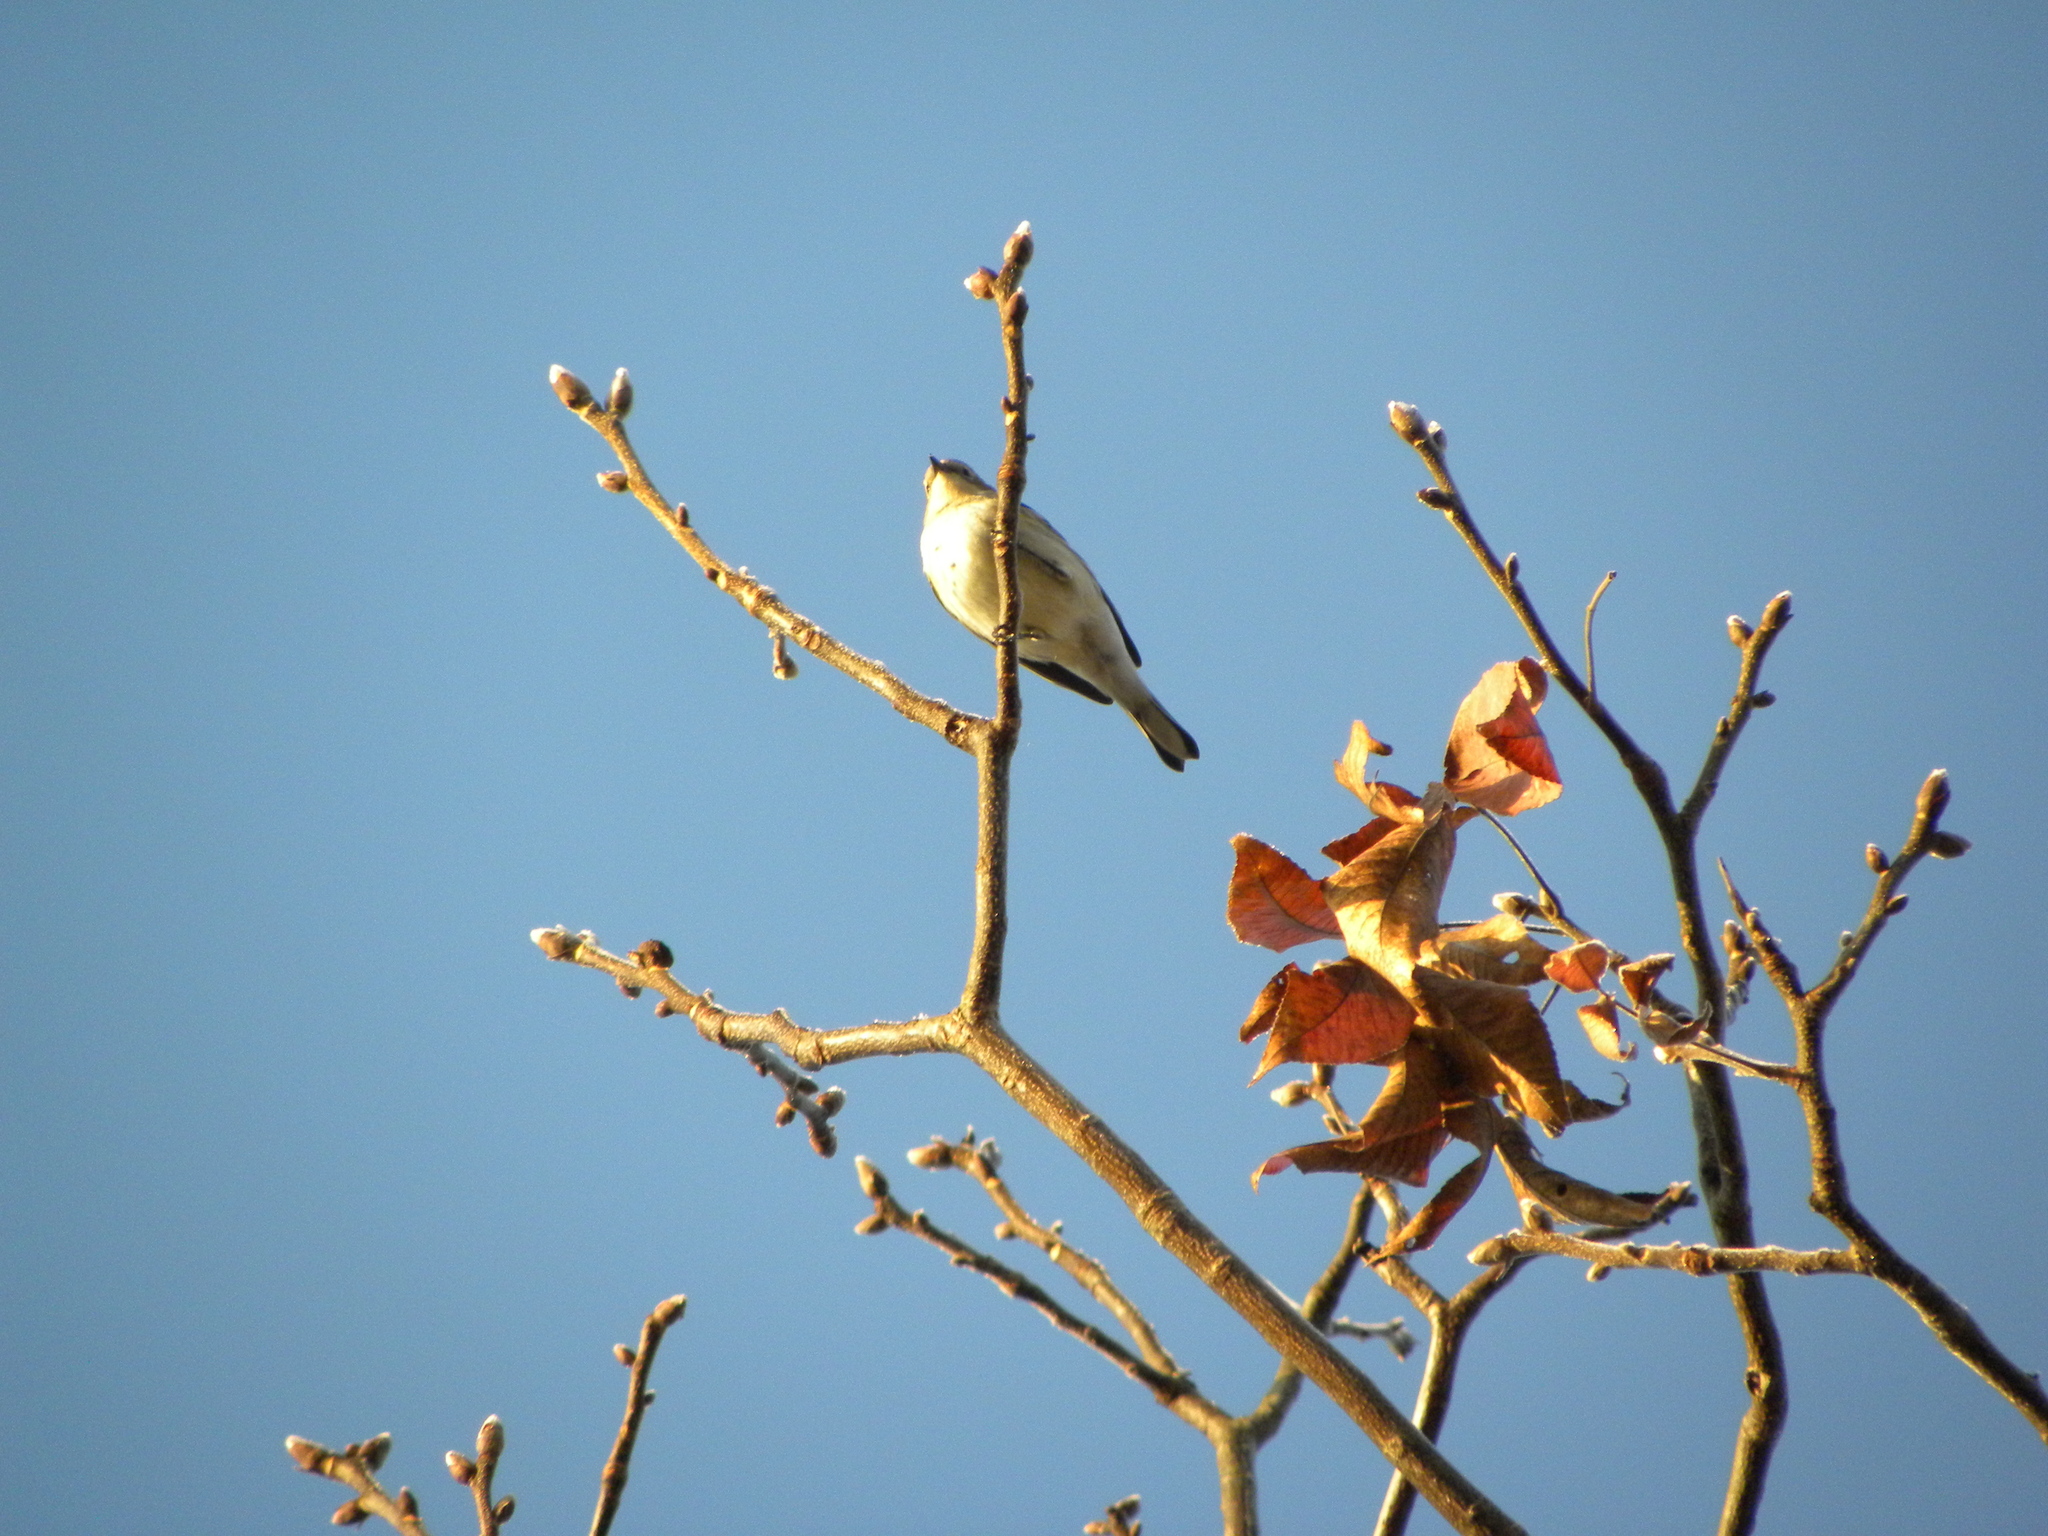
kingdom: Animalia
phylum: Chordata
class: Aves
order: Passeriformes
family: Parulidae
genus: Setophaga
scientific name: Setophaga coronata
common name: Myrtle warbler
